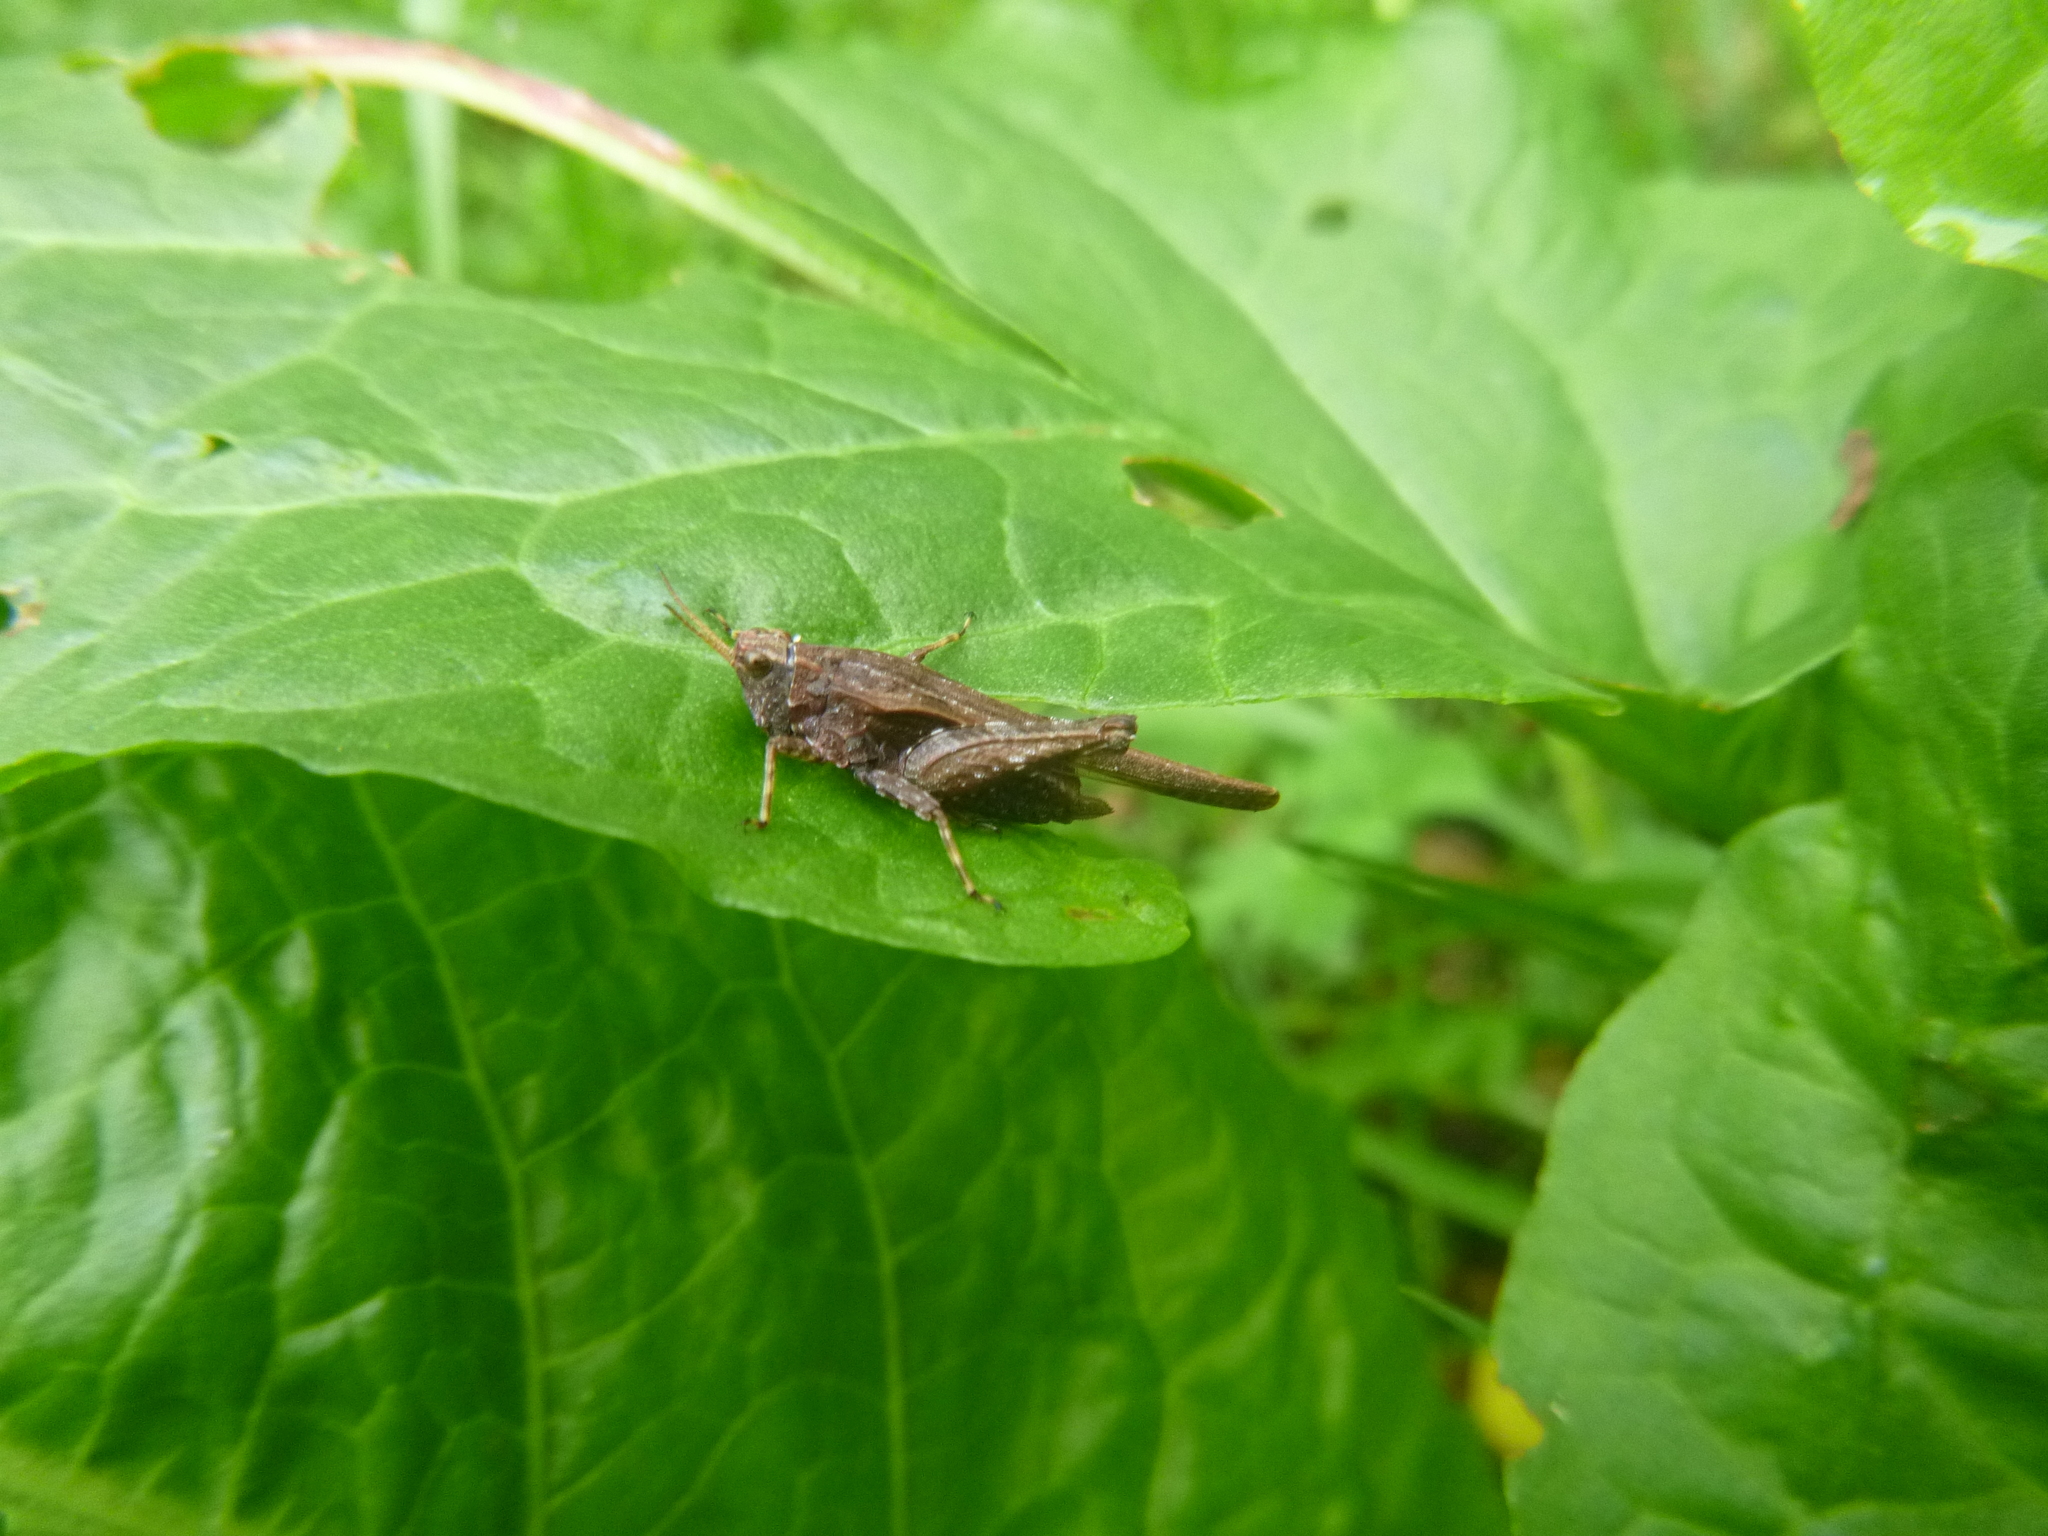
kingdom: Animalia
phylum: Arthropoda
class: Insecta
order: Orthoptera
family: Tetrigidae
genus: Tetrix
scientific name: Tetrix subulata
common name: Slender ground-hopper
